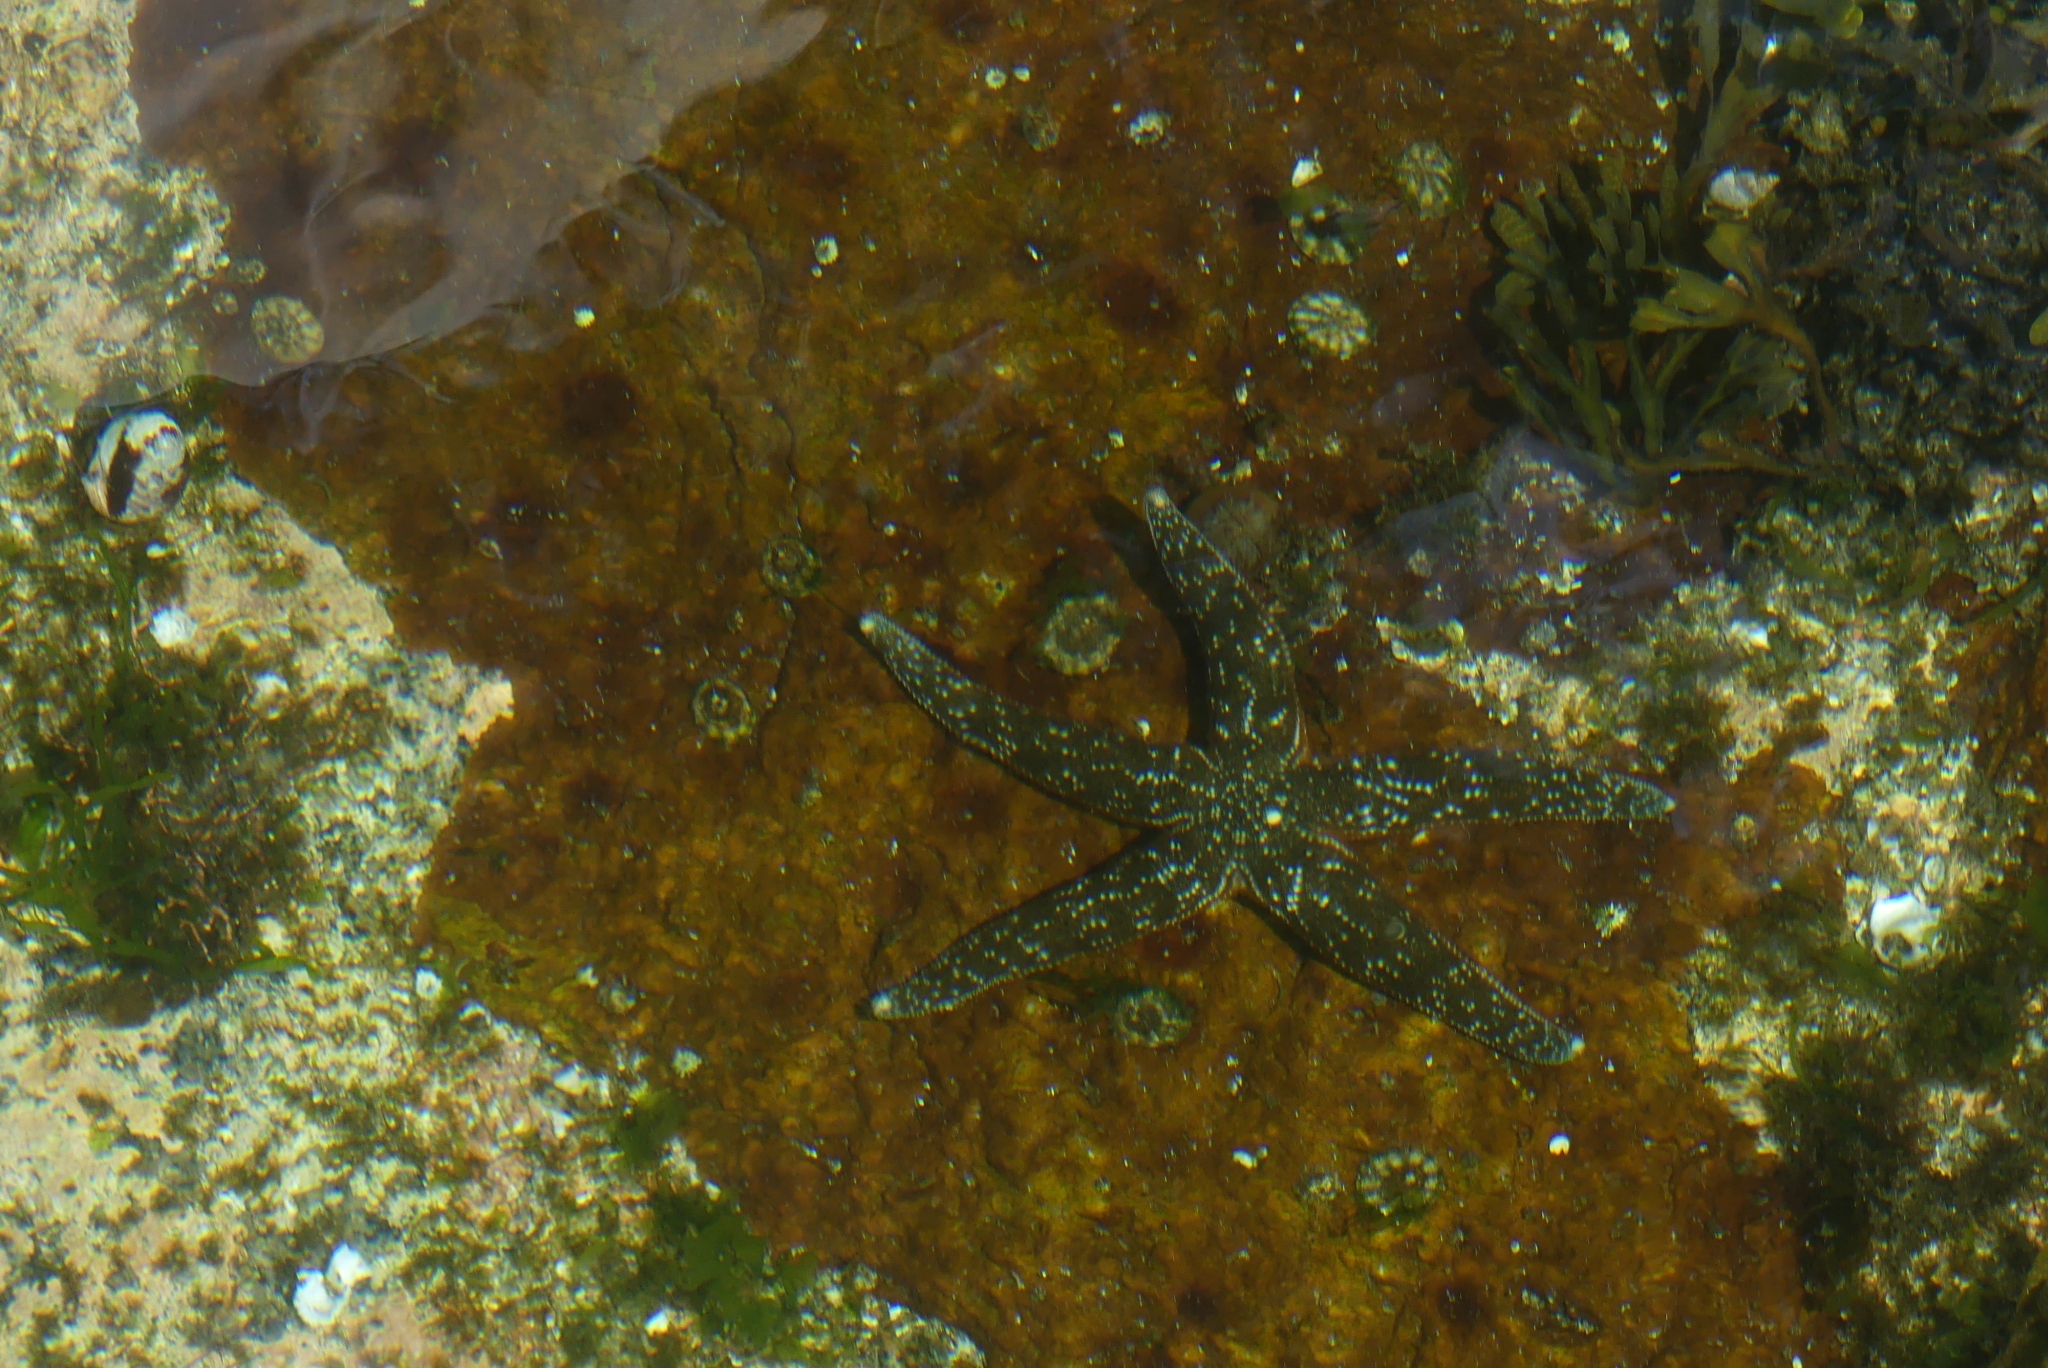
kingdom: Animalia
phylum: Echinodermata
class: Asteroidea
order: Forcipulatida
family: Asteriidae
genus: Evasterias
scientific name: Evasterias troschelii
